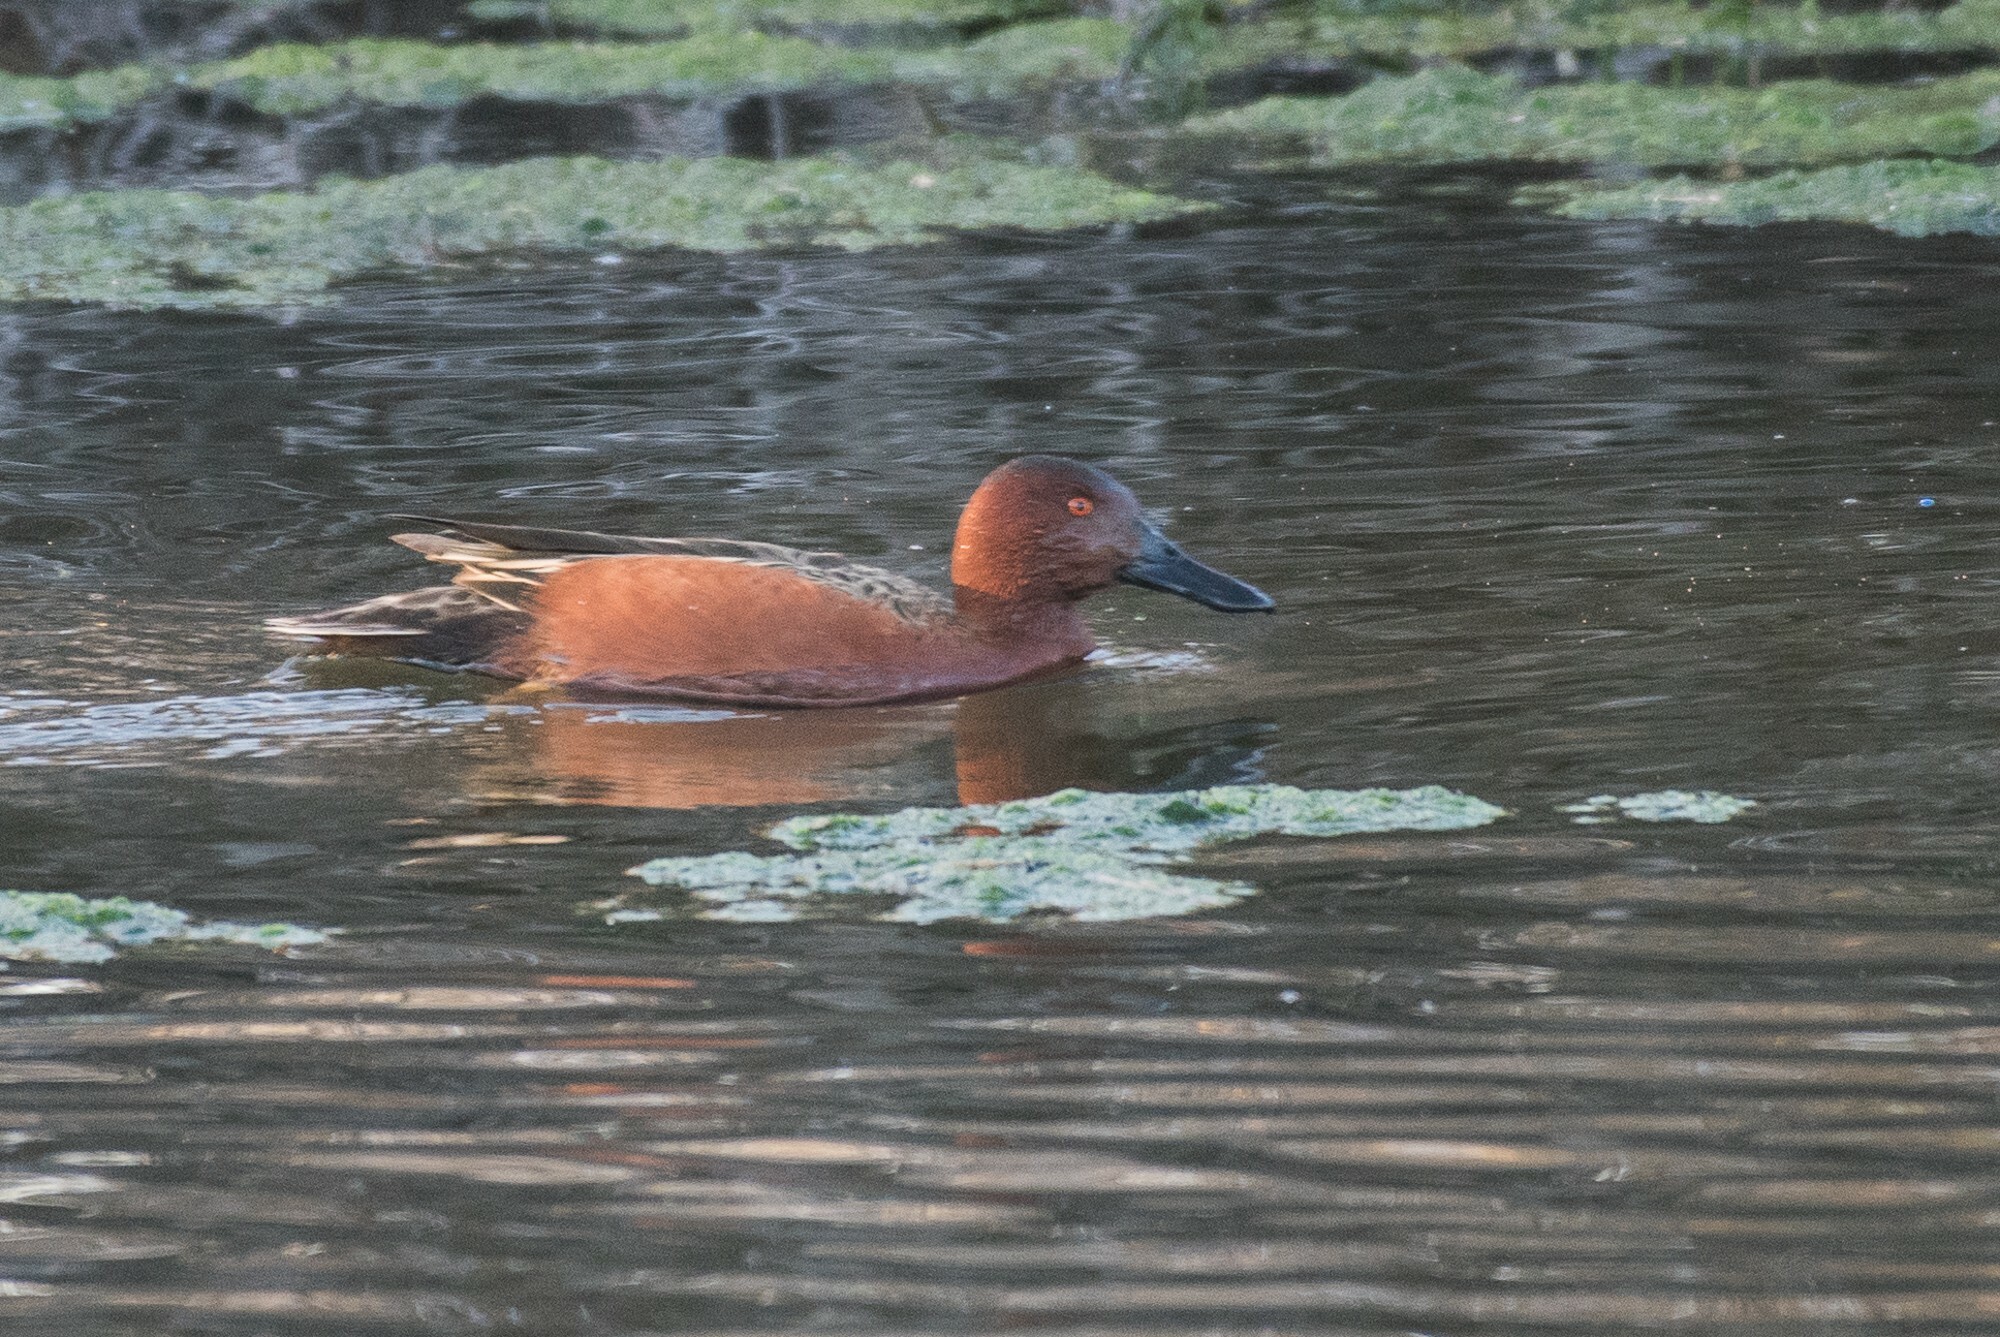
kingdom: Animalia
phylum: Chordata
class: Aves
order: Anseriformes
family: Anatidae
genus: Spatula
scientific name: Spatula cyanoptera
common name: Cinnamon teal
